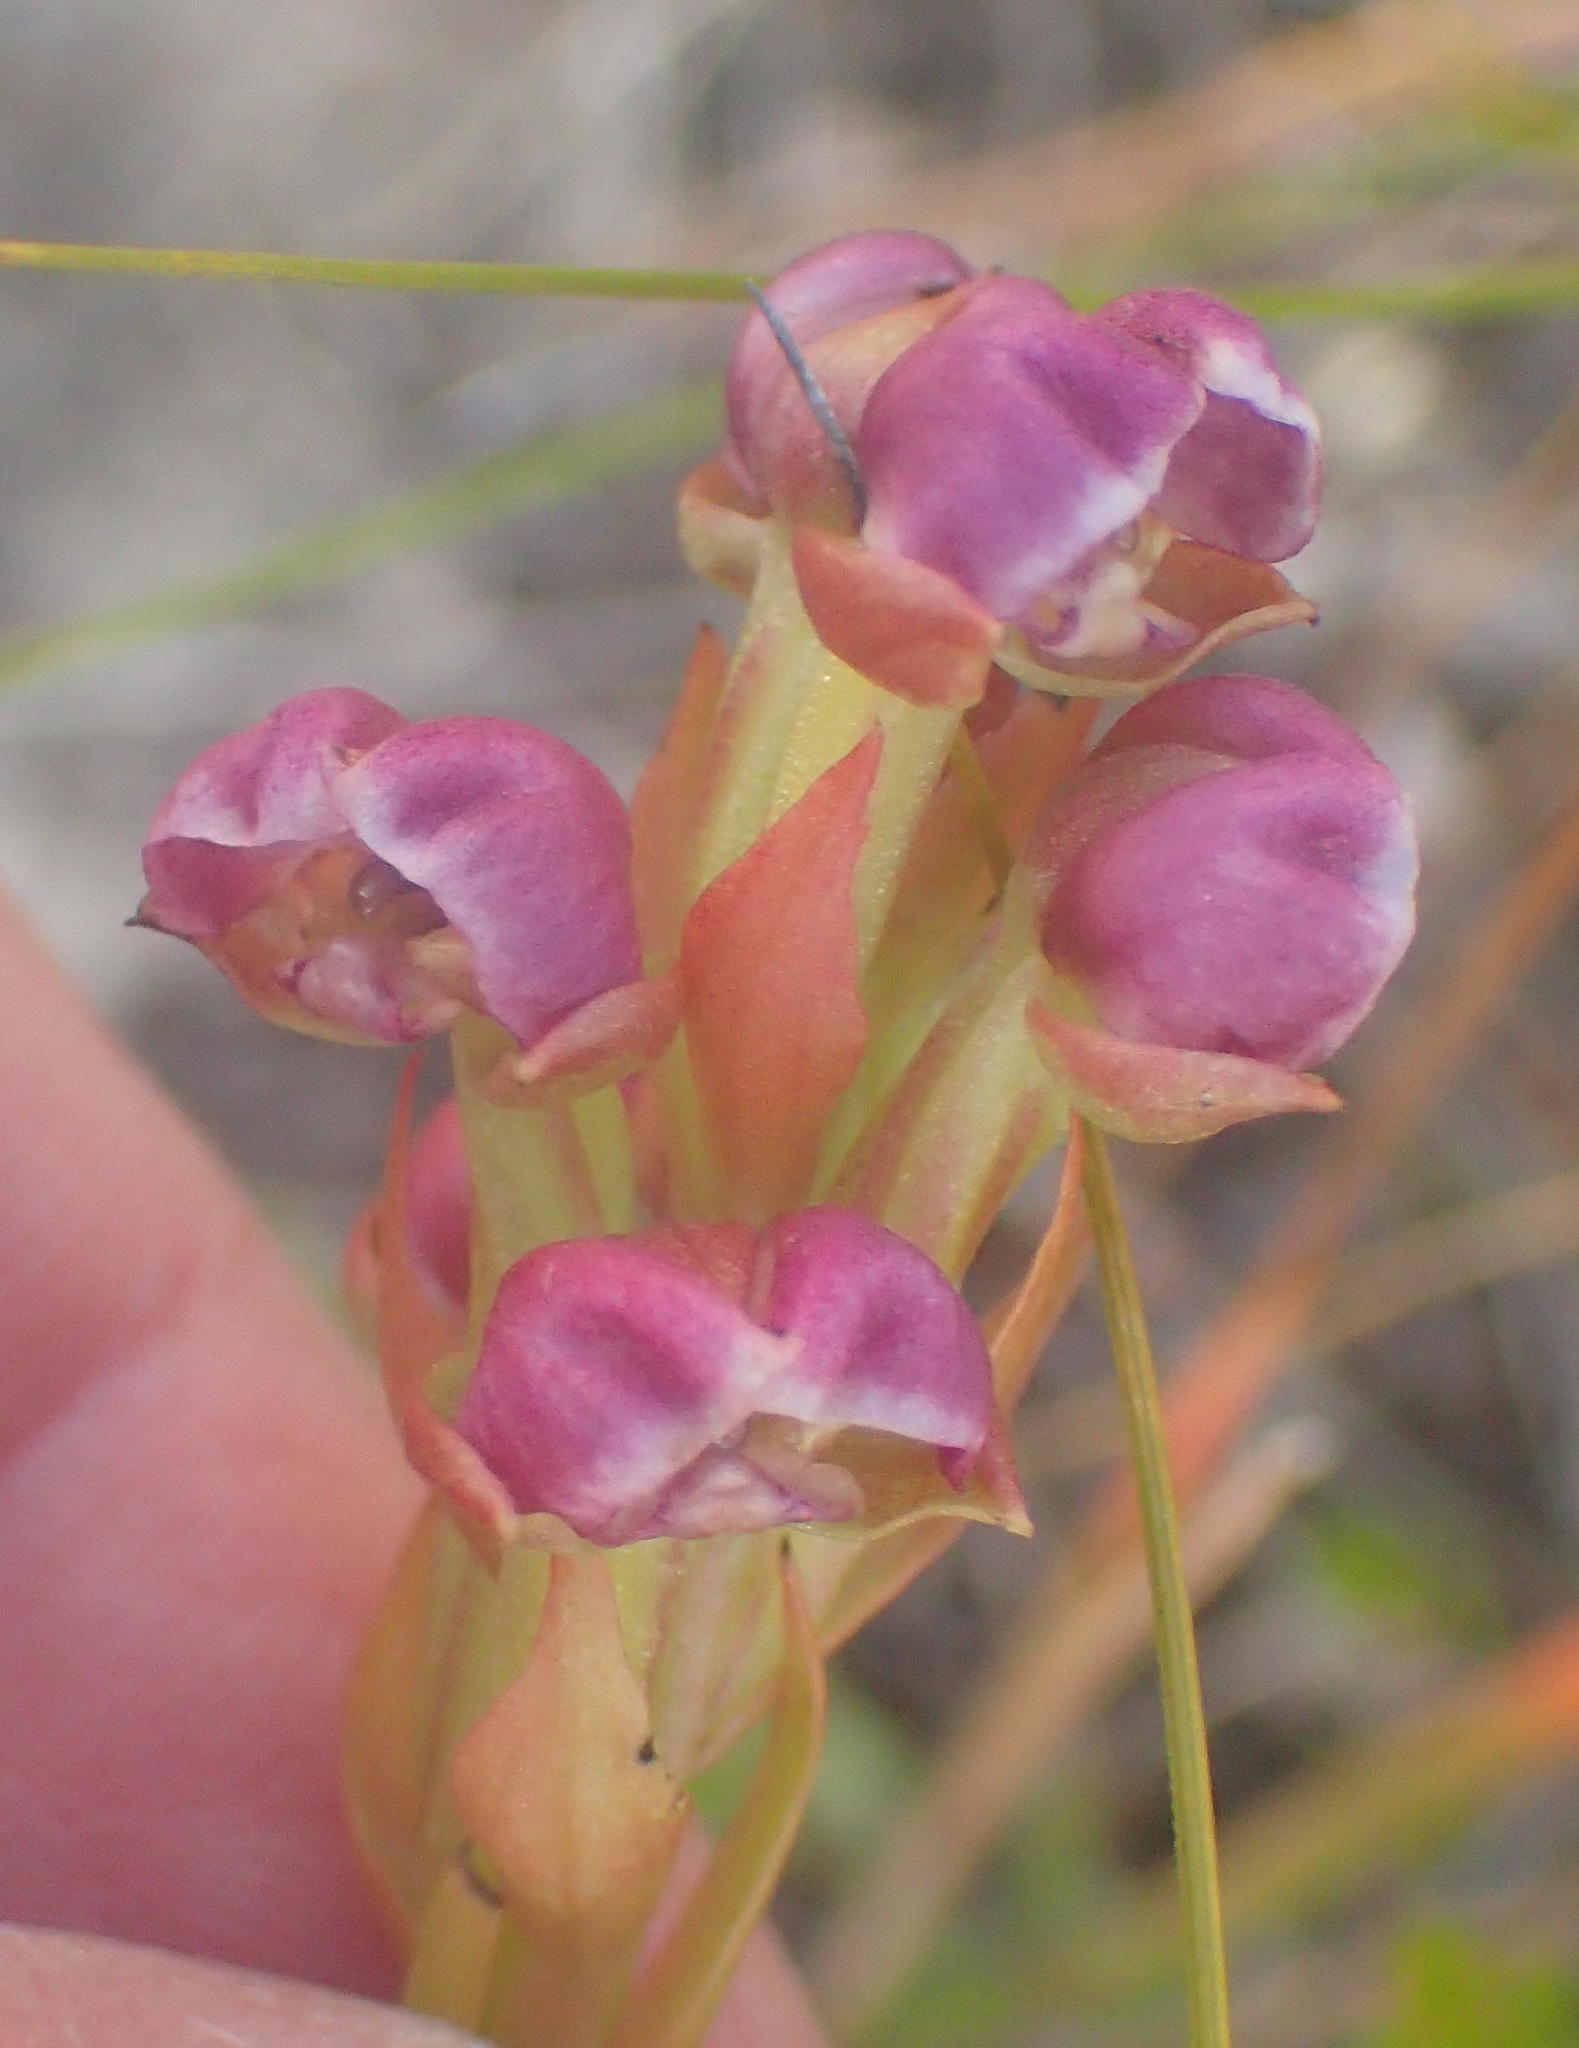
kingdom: Plantae
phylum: Tracheophyta
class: Liliopsida
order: Asparagales
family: Orchidaceae
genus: Evotella
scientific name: Evotella carnosa
